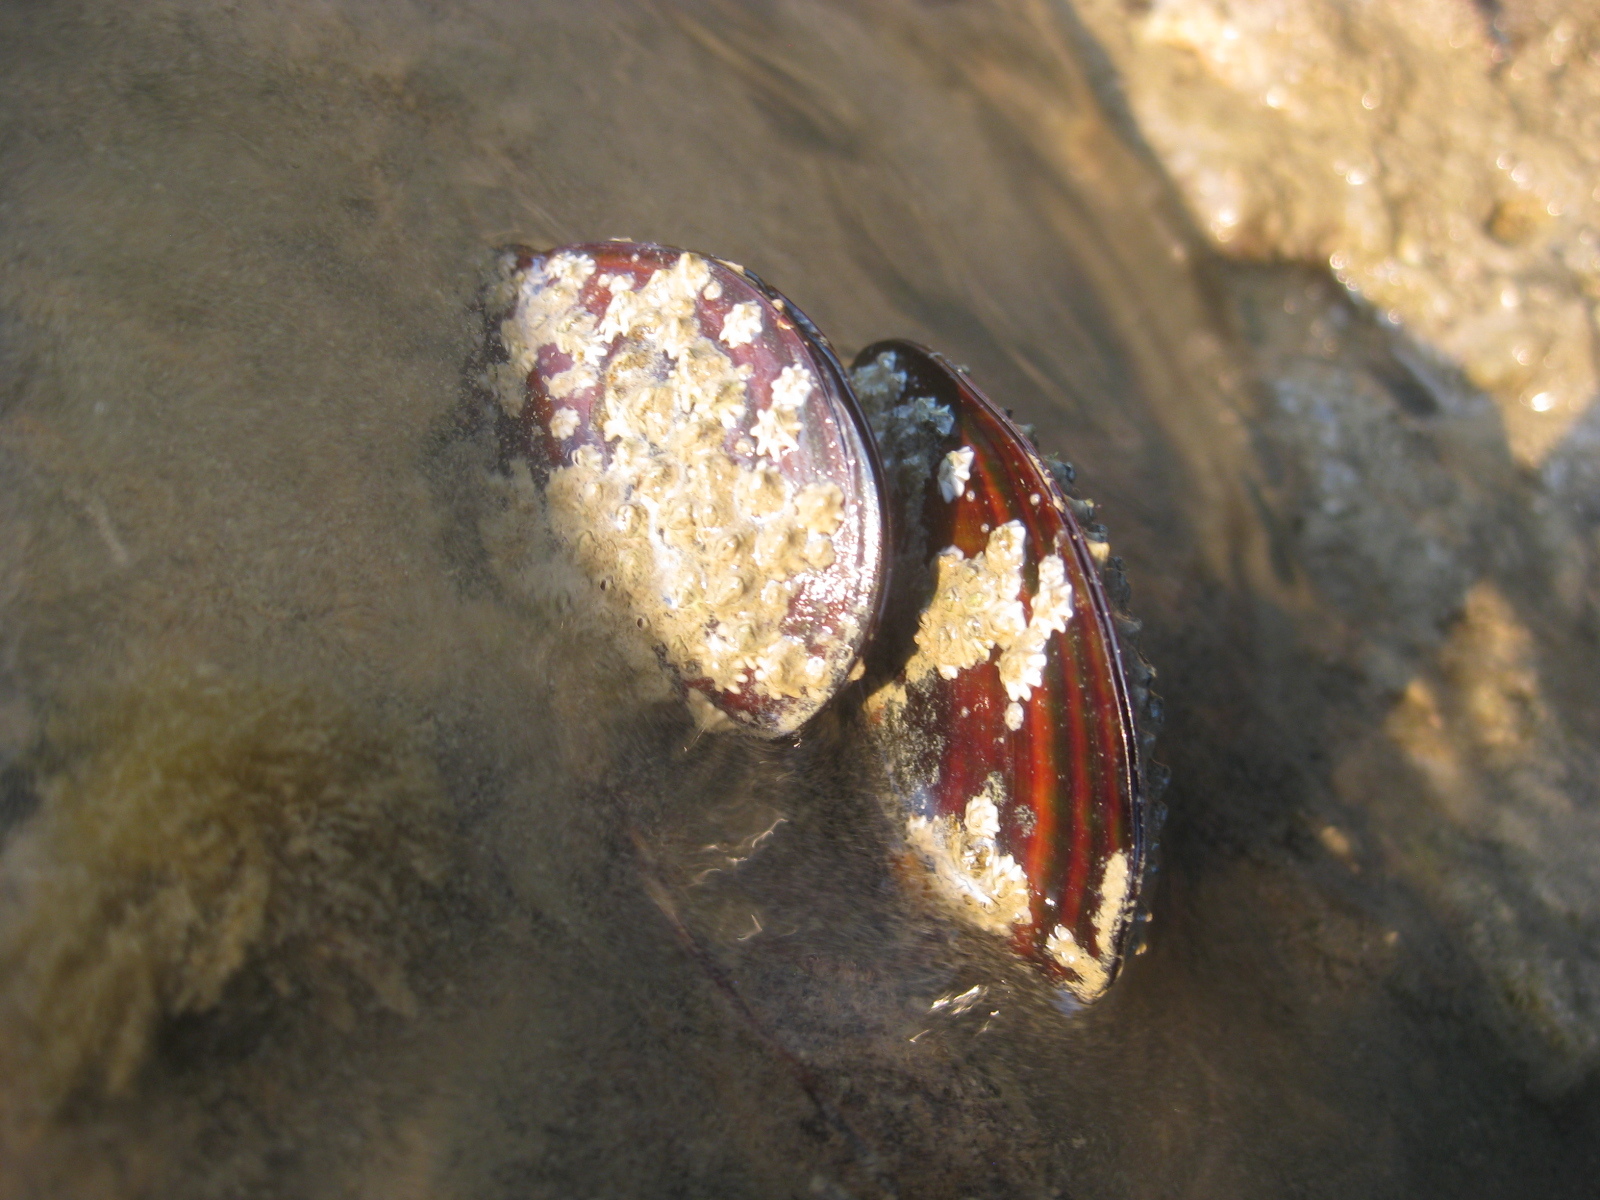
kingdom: Animalia
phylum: Mollusca
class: Bivalvia
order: Mytilida
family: Mytilidae
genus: Perna
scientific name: Perna canaliculus
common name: New zealand greenshelltm
